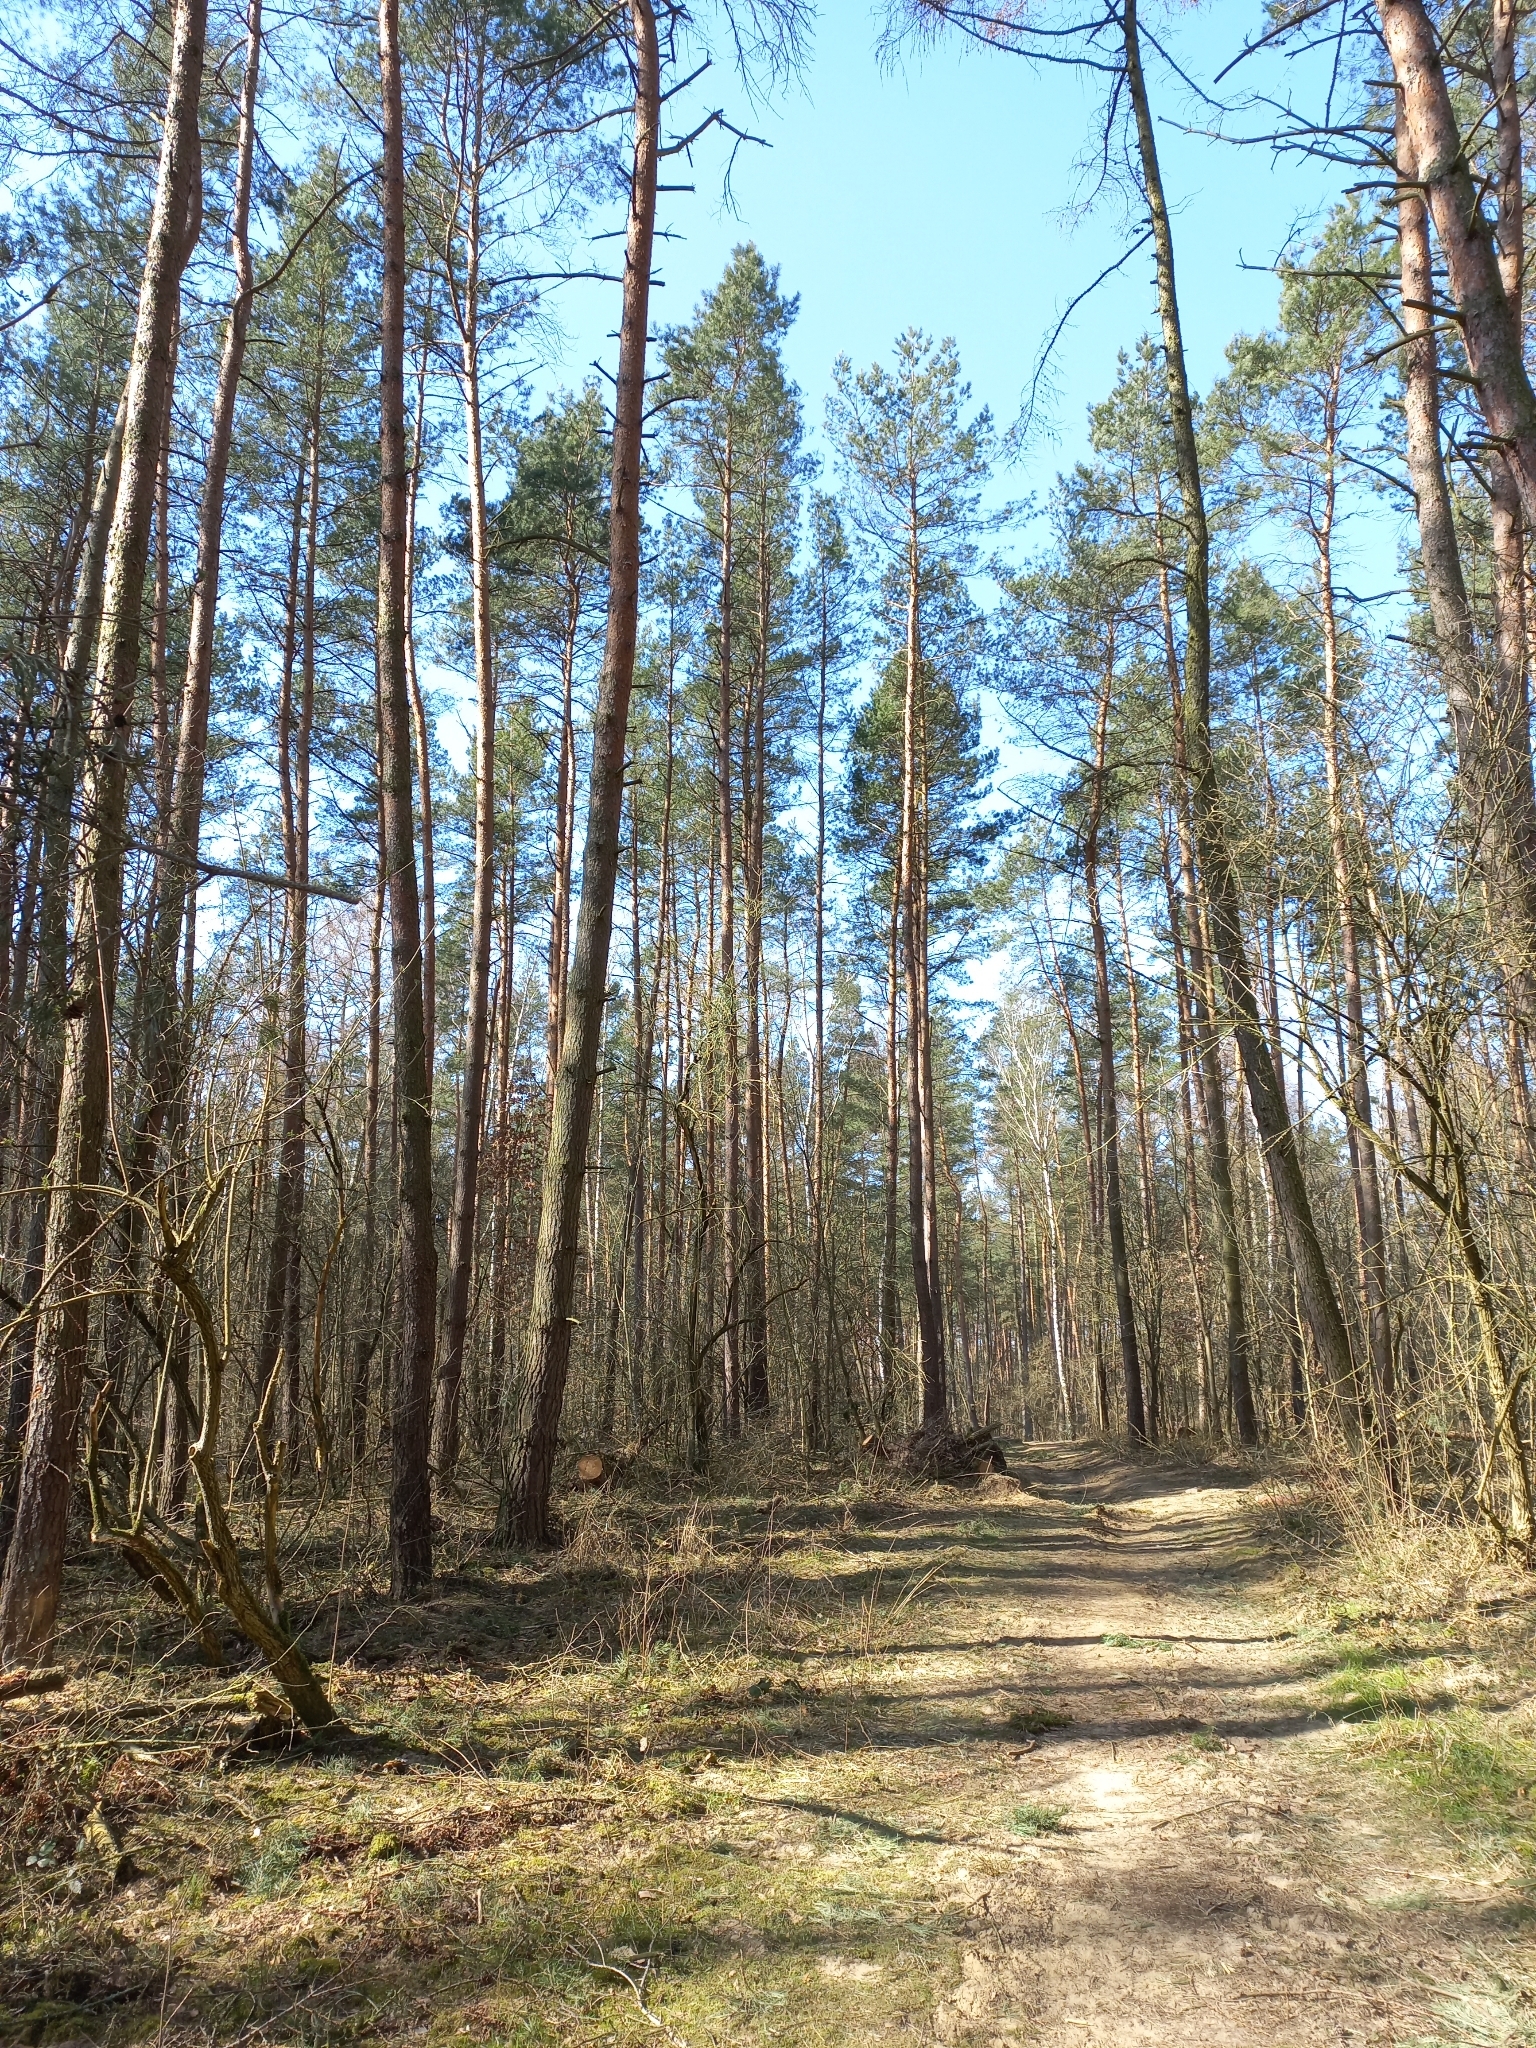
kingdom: Plantae
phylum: Tracheophyta
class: Pinopsida
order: Pinales
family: Pinaceae
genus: Pinus
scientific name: Pinus sylvestris
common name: Scots pine
